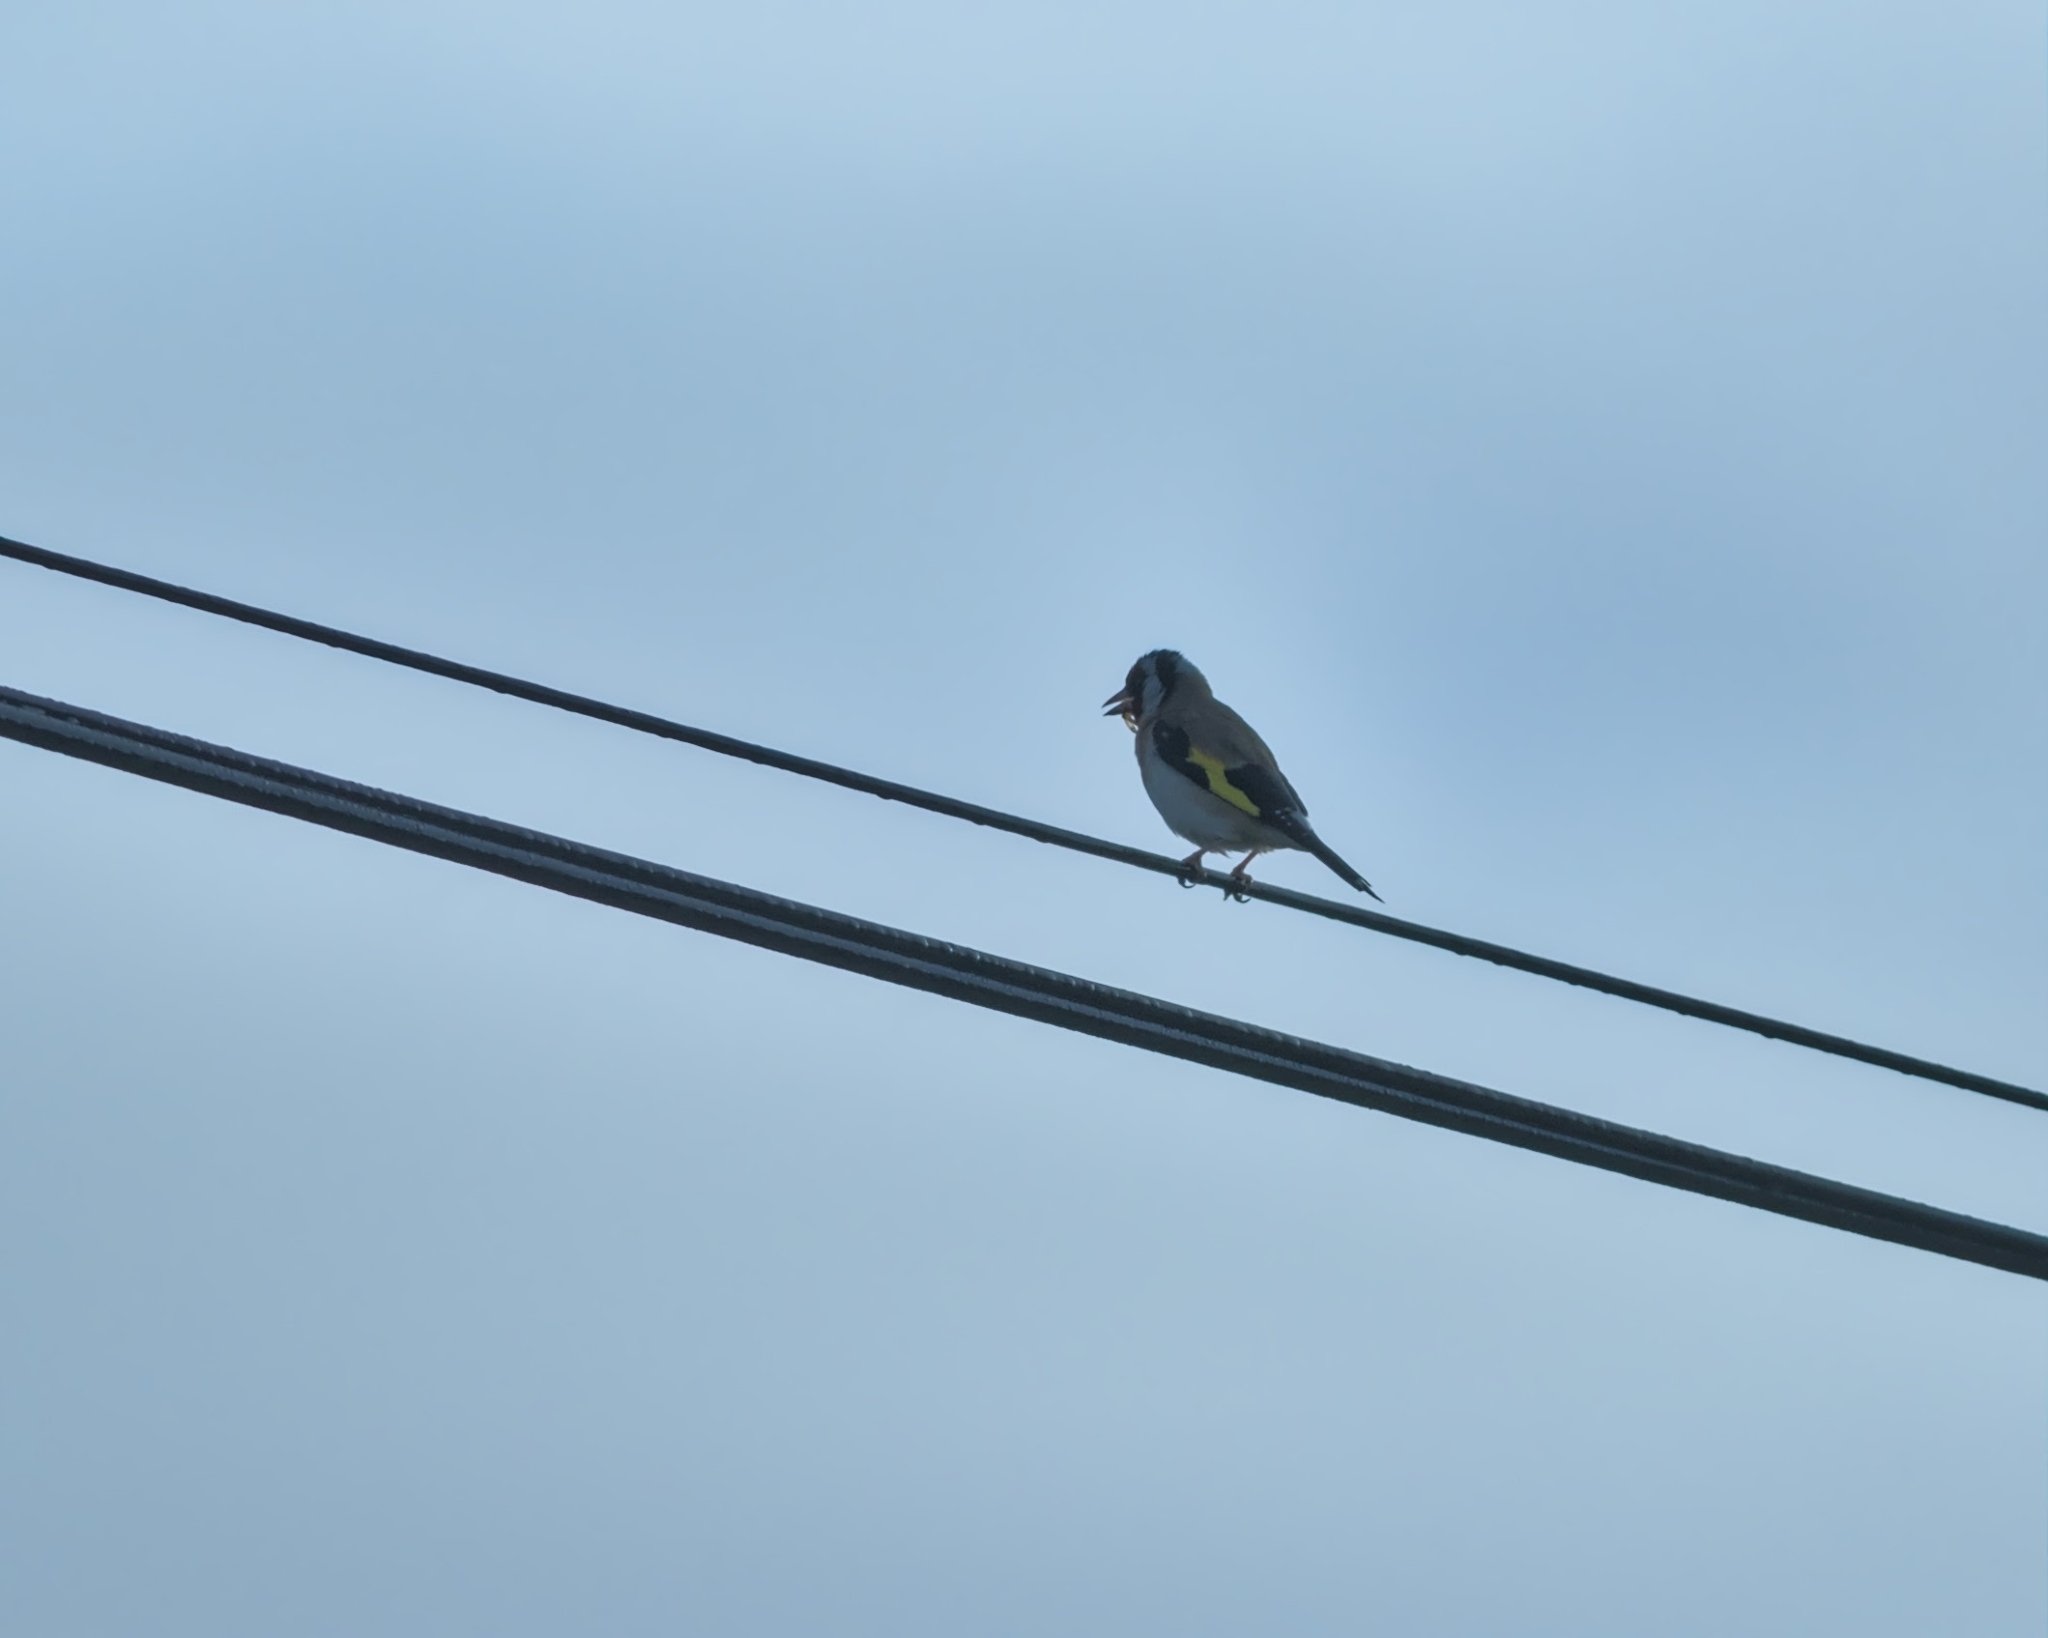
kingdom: Animalia
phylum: Chordata
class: Aves
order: Passeriformes
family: Fringillidae
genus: Carduelis
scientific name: Carduelis carduelis
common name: European goldfinch
